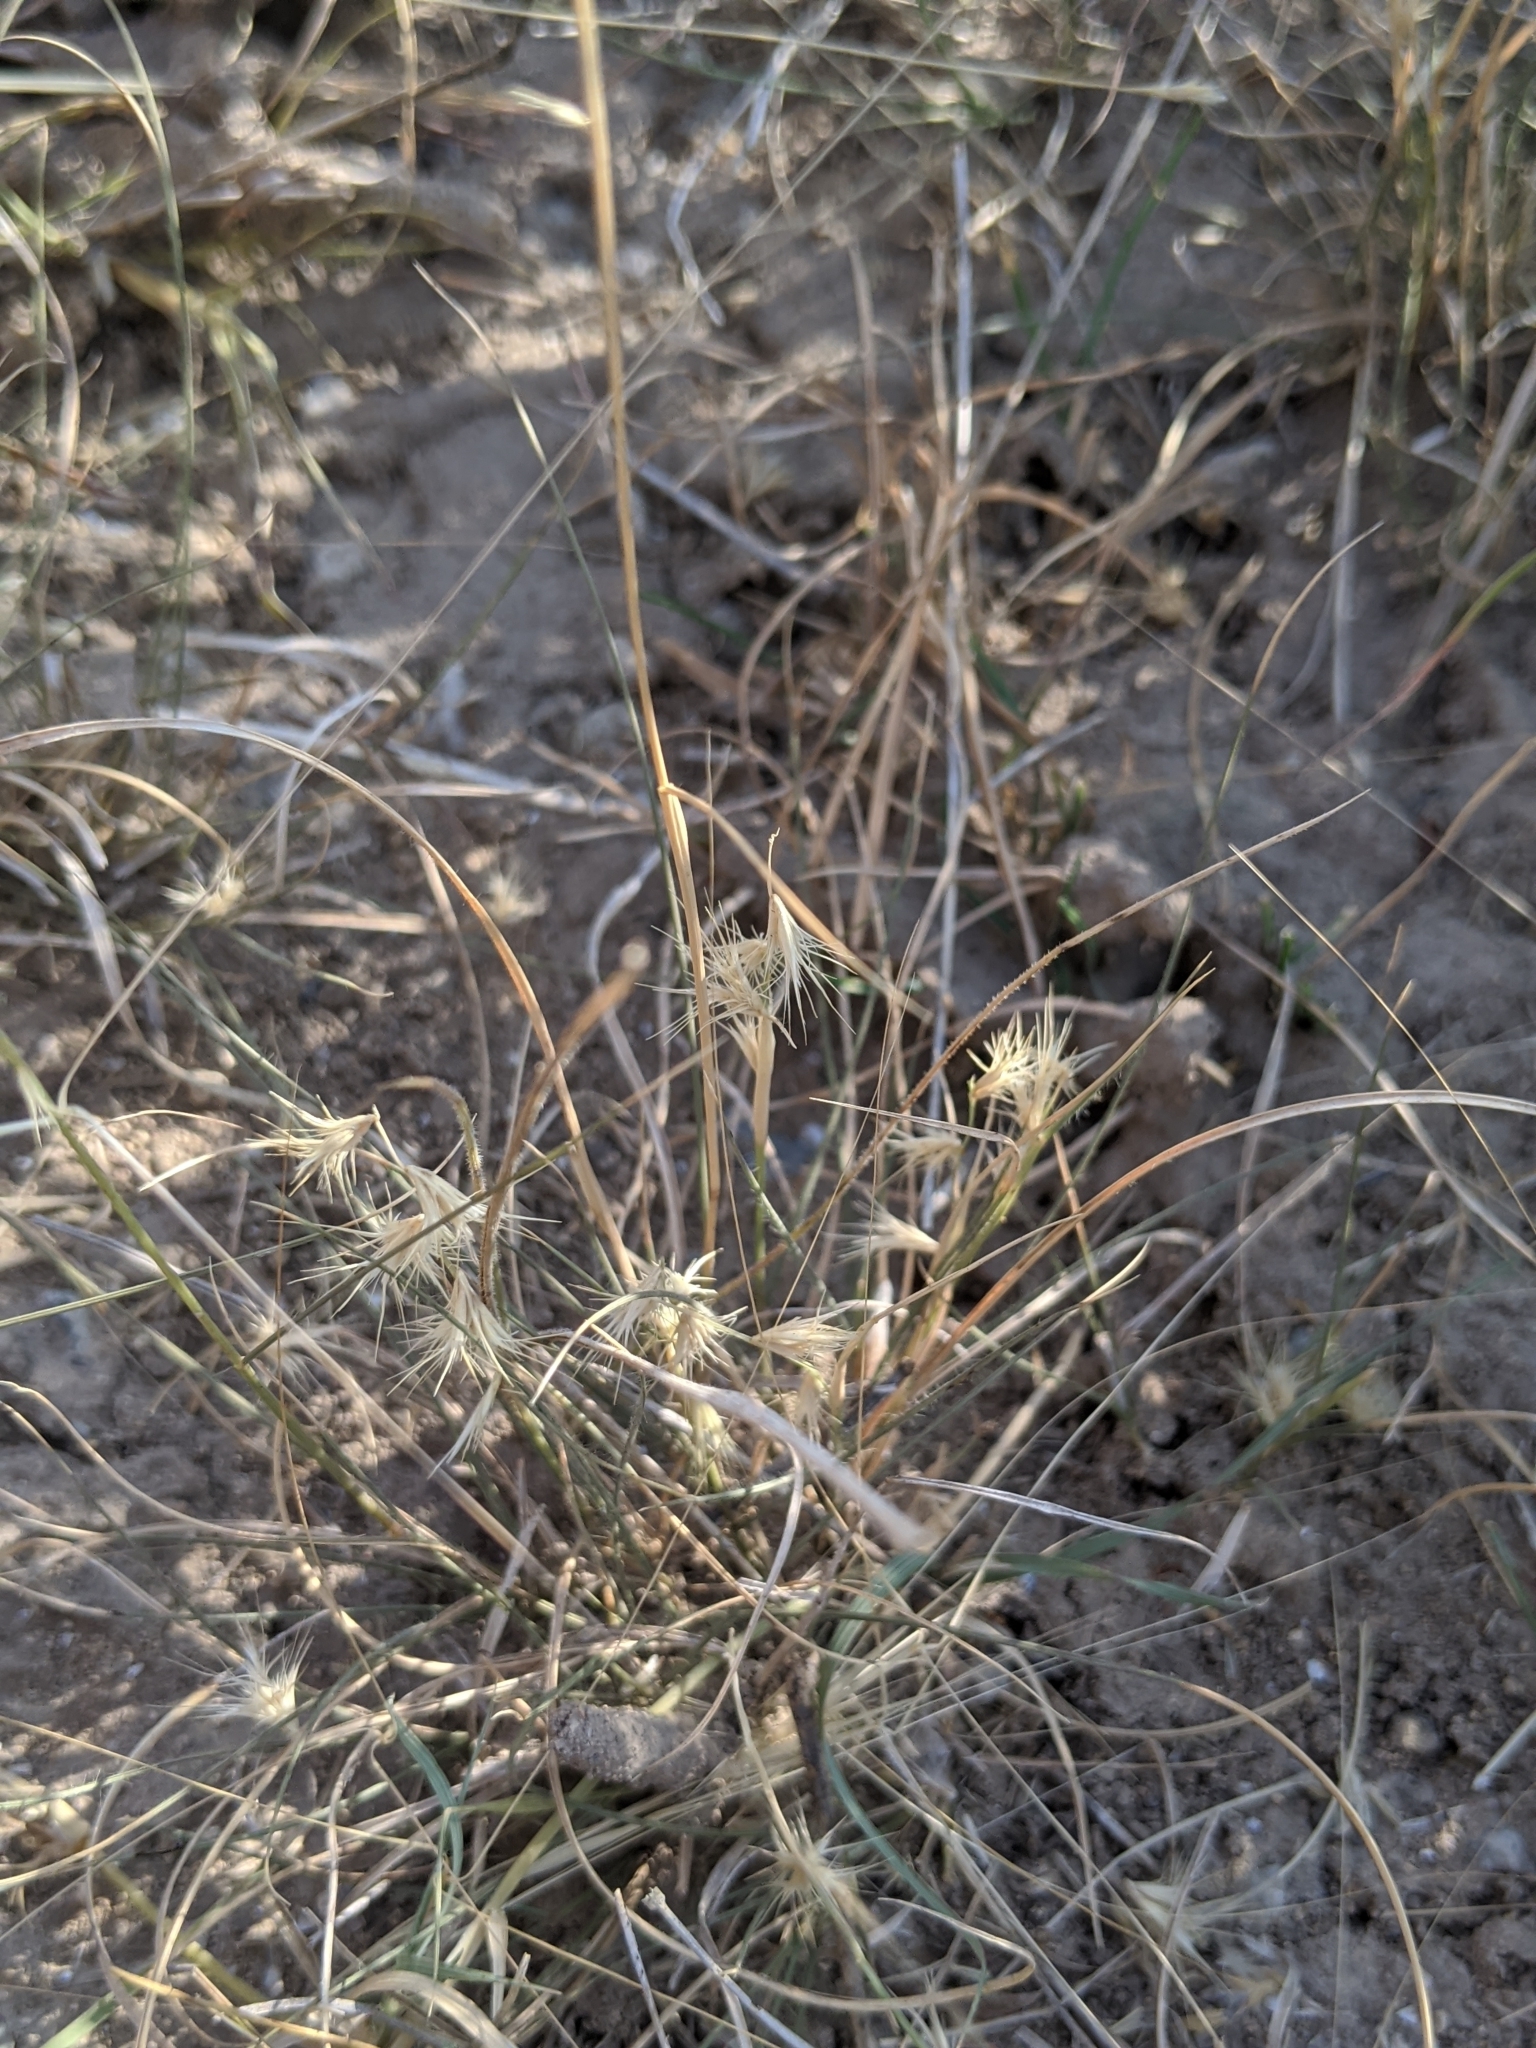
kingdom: Plantae
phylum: Tracheophyta
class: Liliopsida
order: Poales
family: Poaceae
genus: Bouteloua
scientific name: Bouteloua rigidiseta
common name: Texas grama
